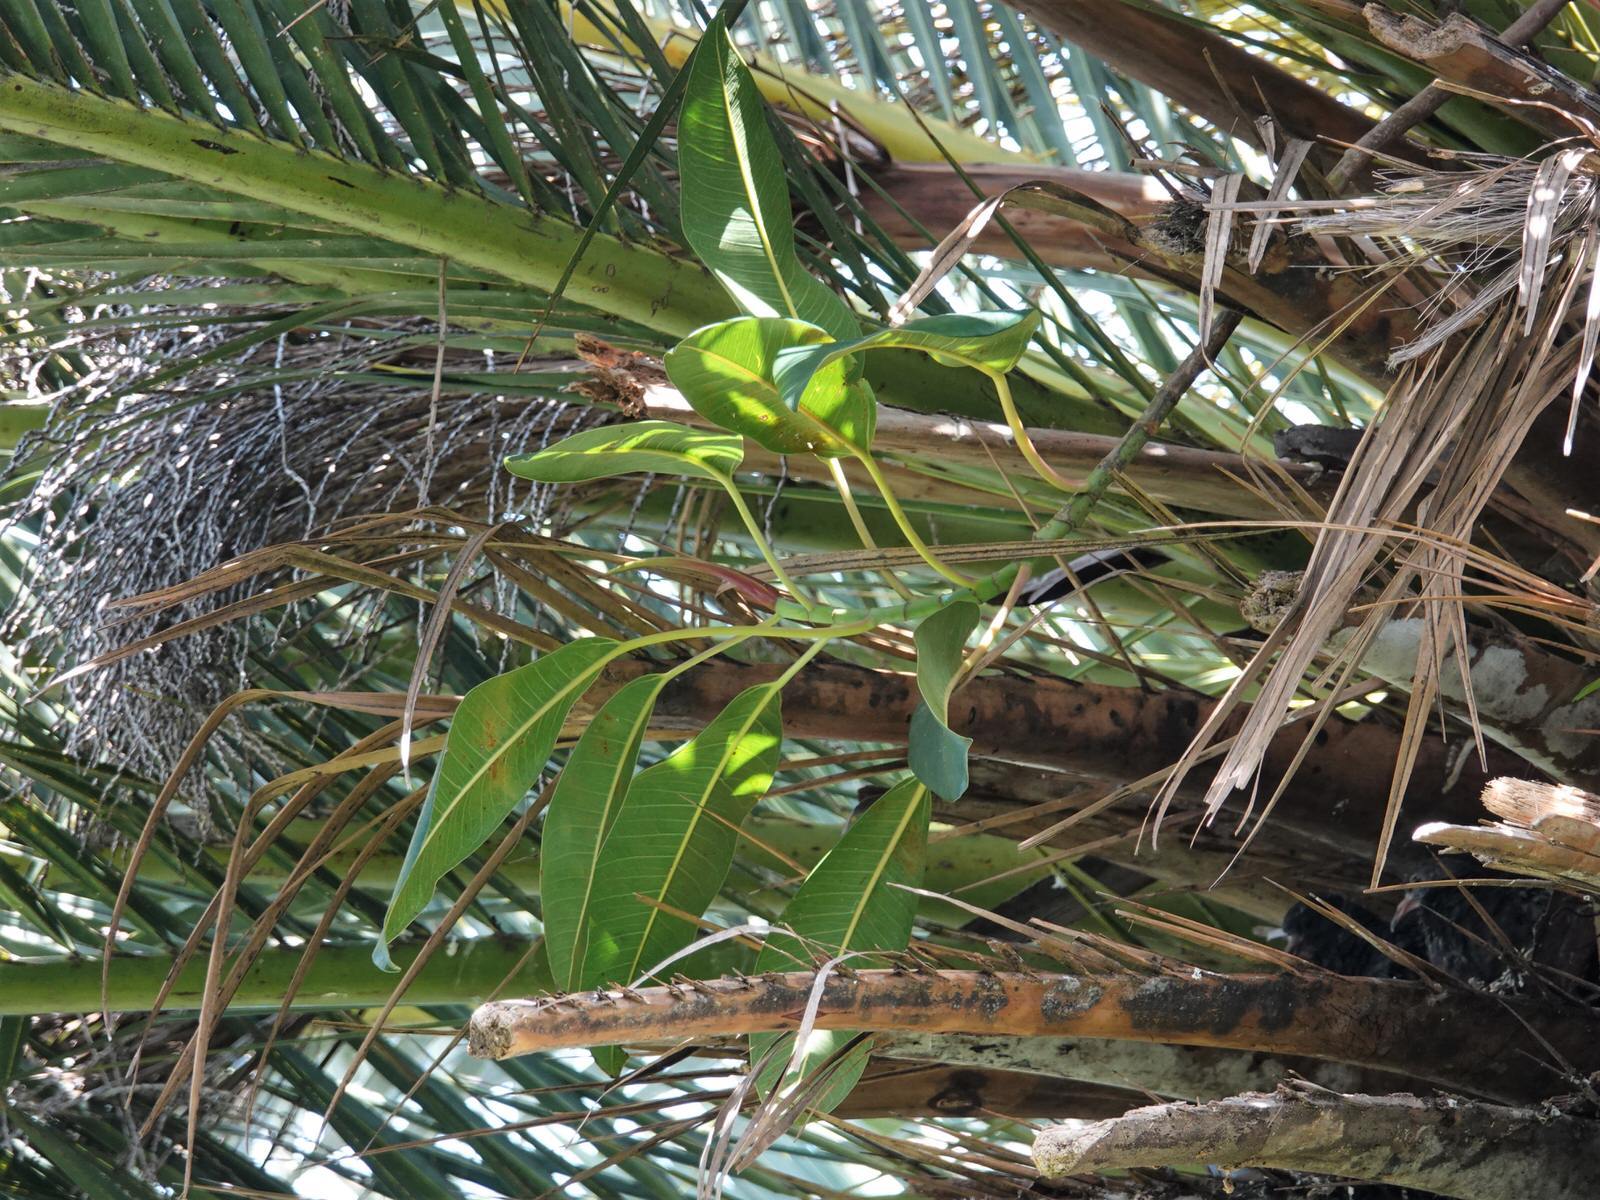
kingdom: Plantae
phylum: Tracheophyta
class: Magnoliopsida
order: Rosales
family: Moraceae
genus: Ficus
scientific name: Ficus macrophylla
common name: Moreton bay fig
